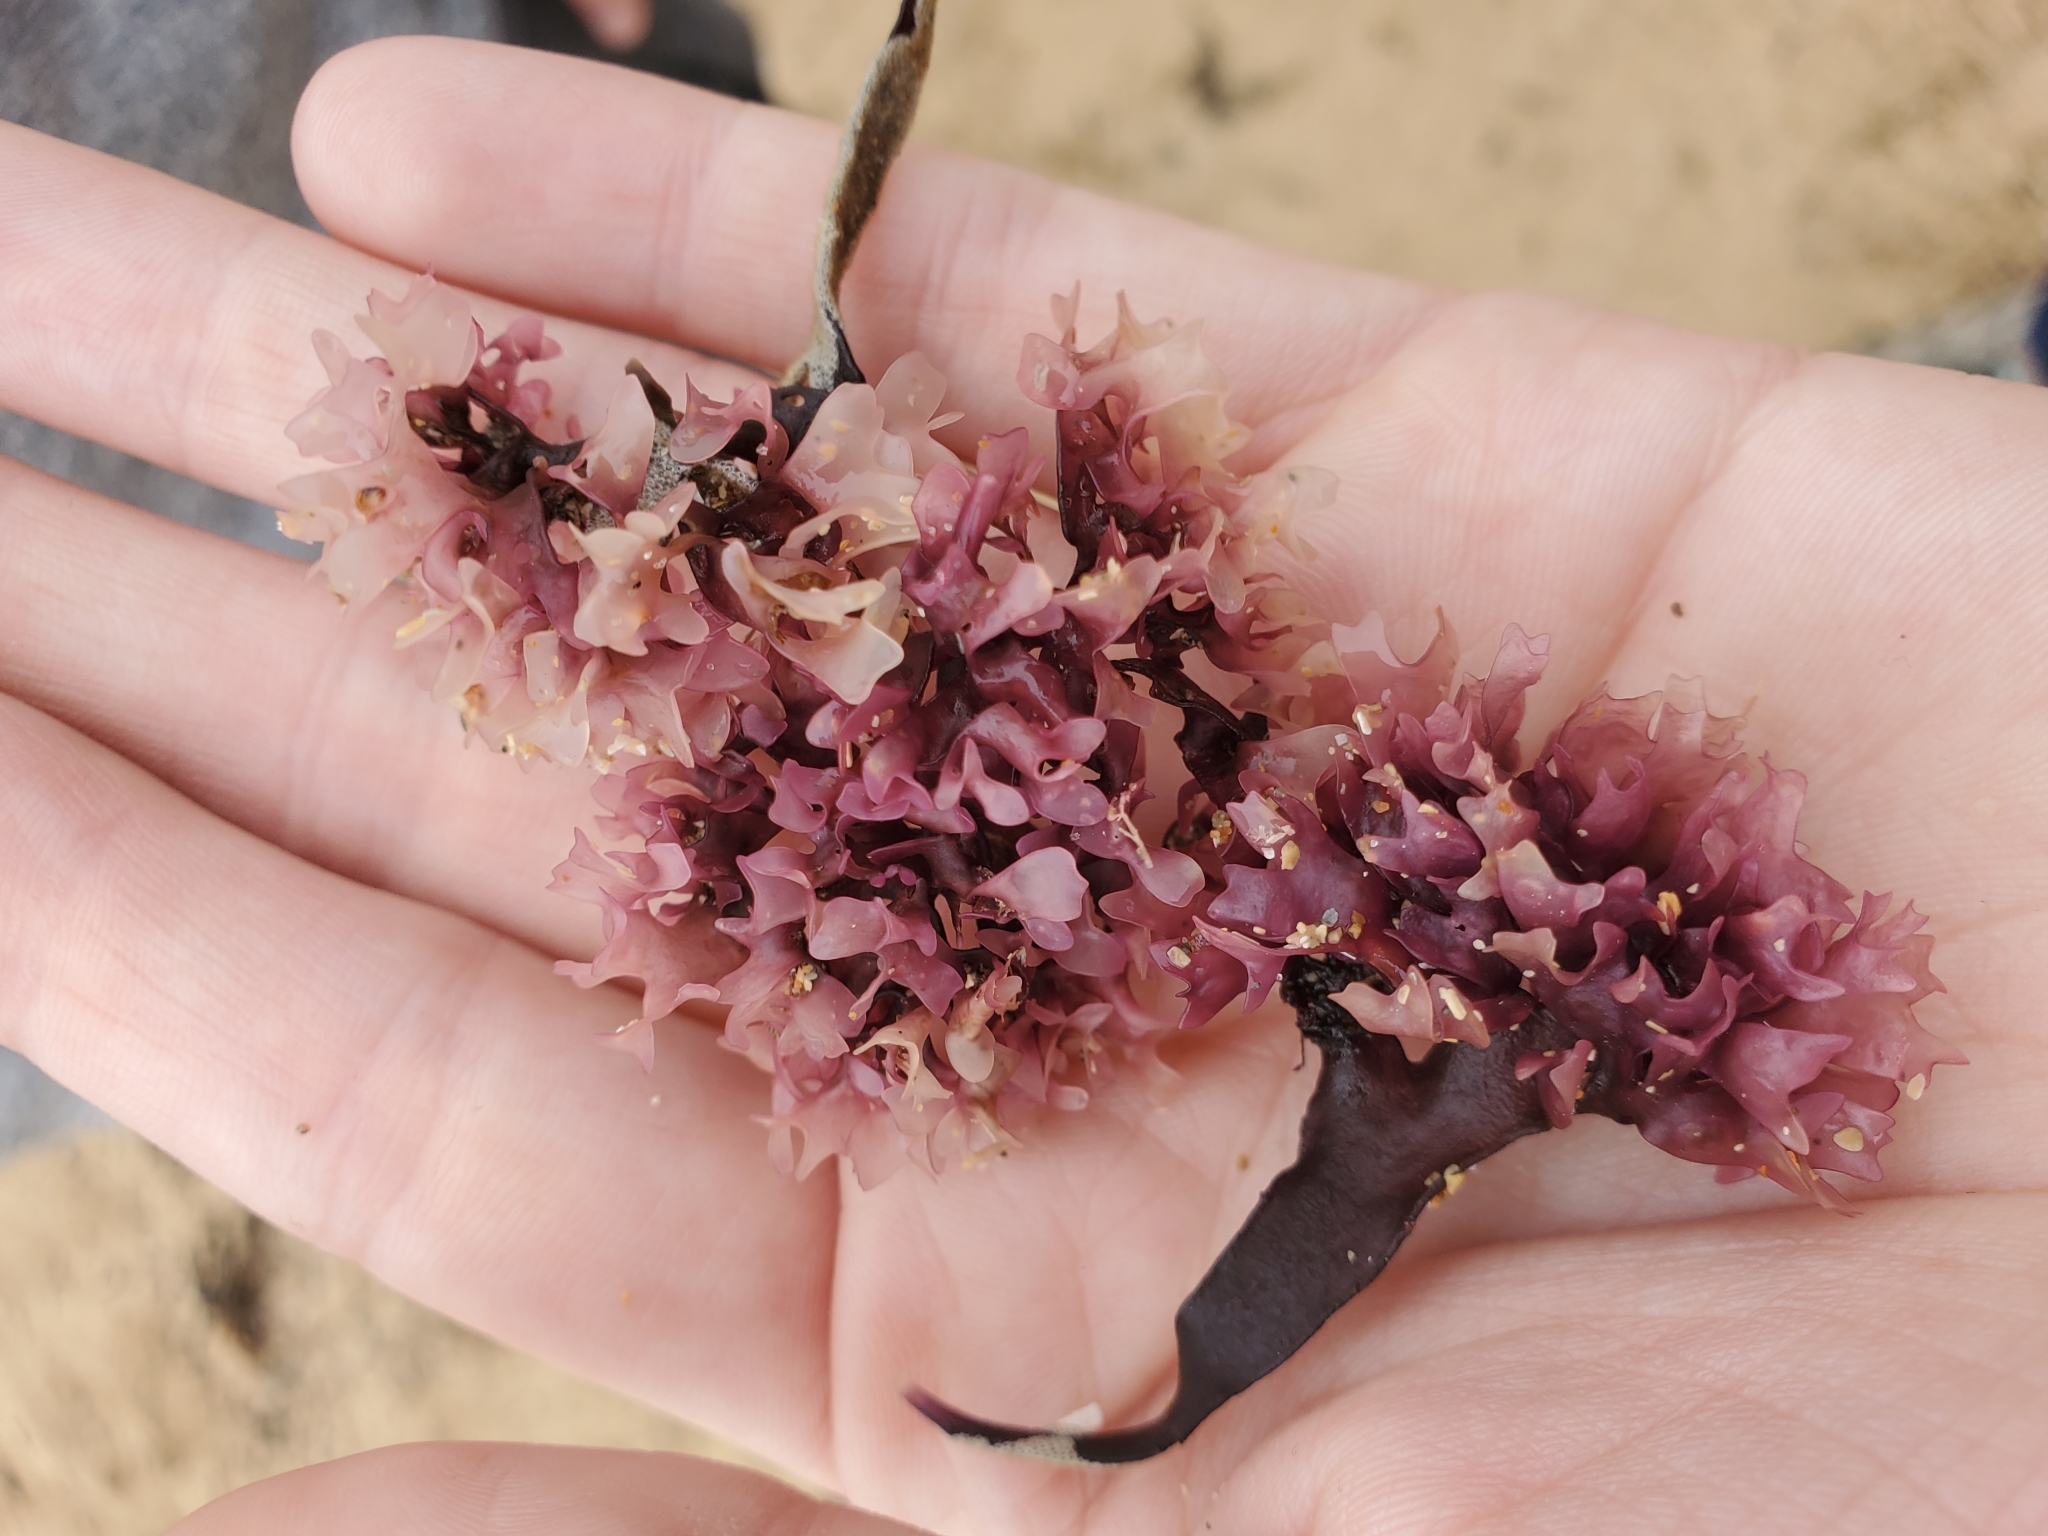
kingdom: Plantae
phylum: Rhodophyta
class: Florideophyceae
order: Gigartinales
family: Gigartinaceae
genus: Chondrus
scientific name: Chondrus crispus
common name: Carrageen
